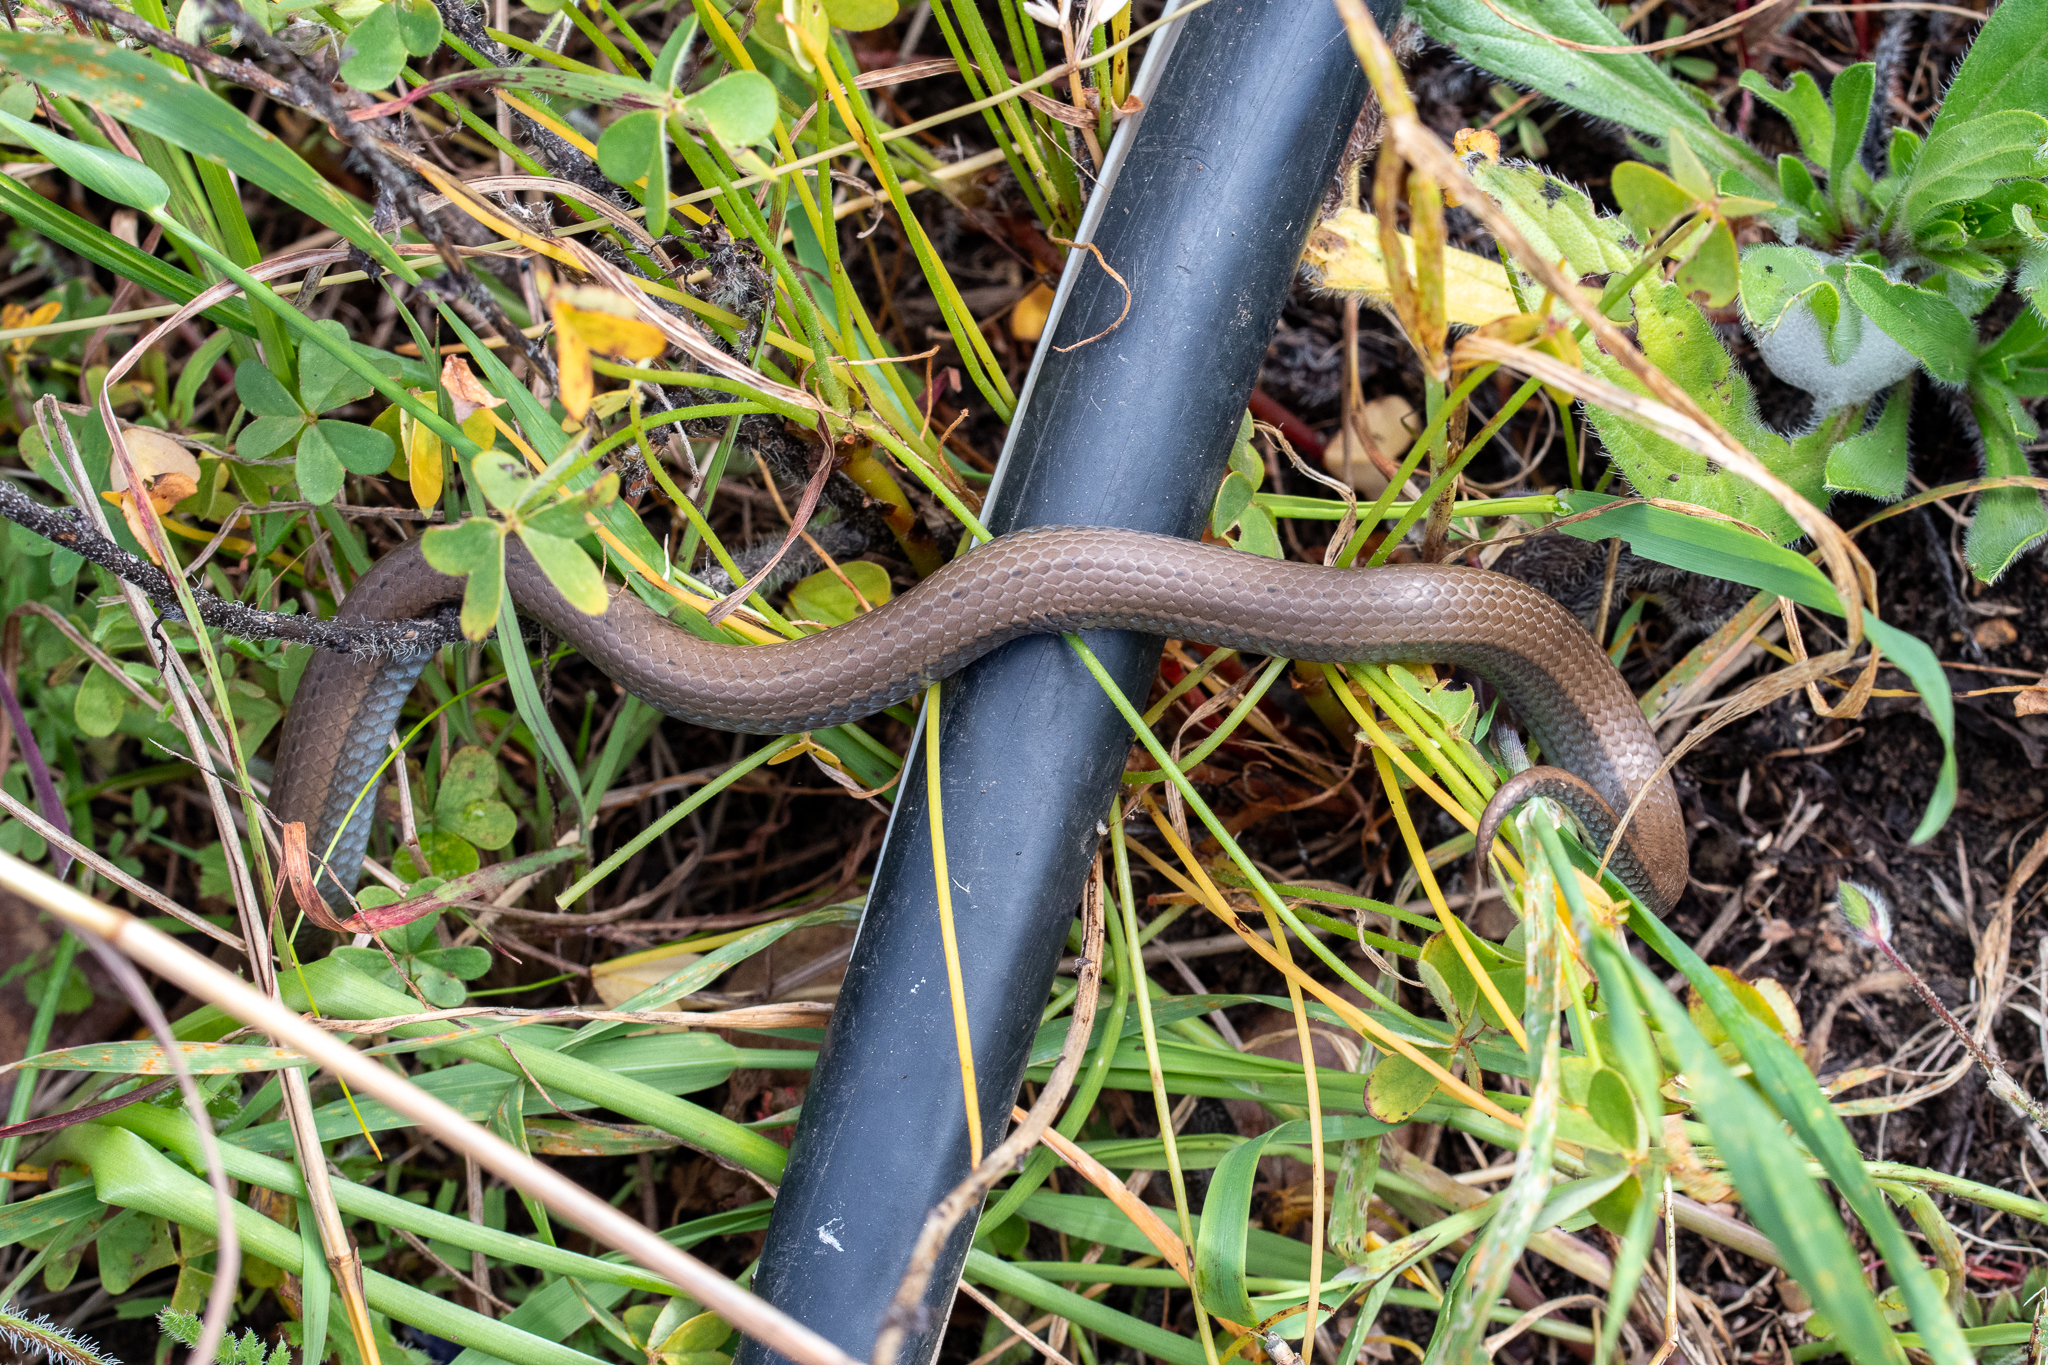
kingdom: Animalia
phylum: Chordata
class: Squamata
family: Pseudoxyrhophiidae
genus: Duberria
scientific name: Duberria lutrix
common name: Common slug eater
